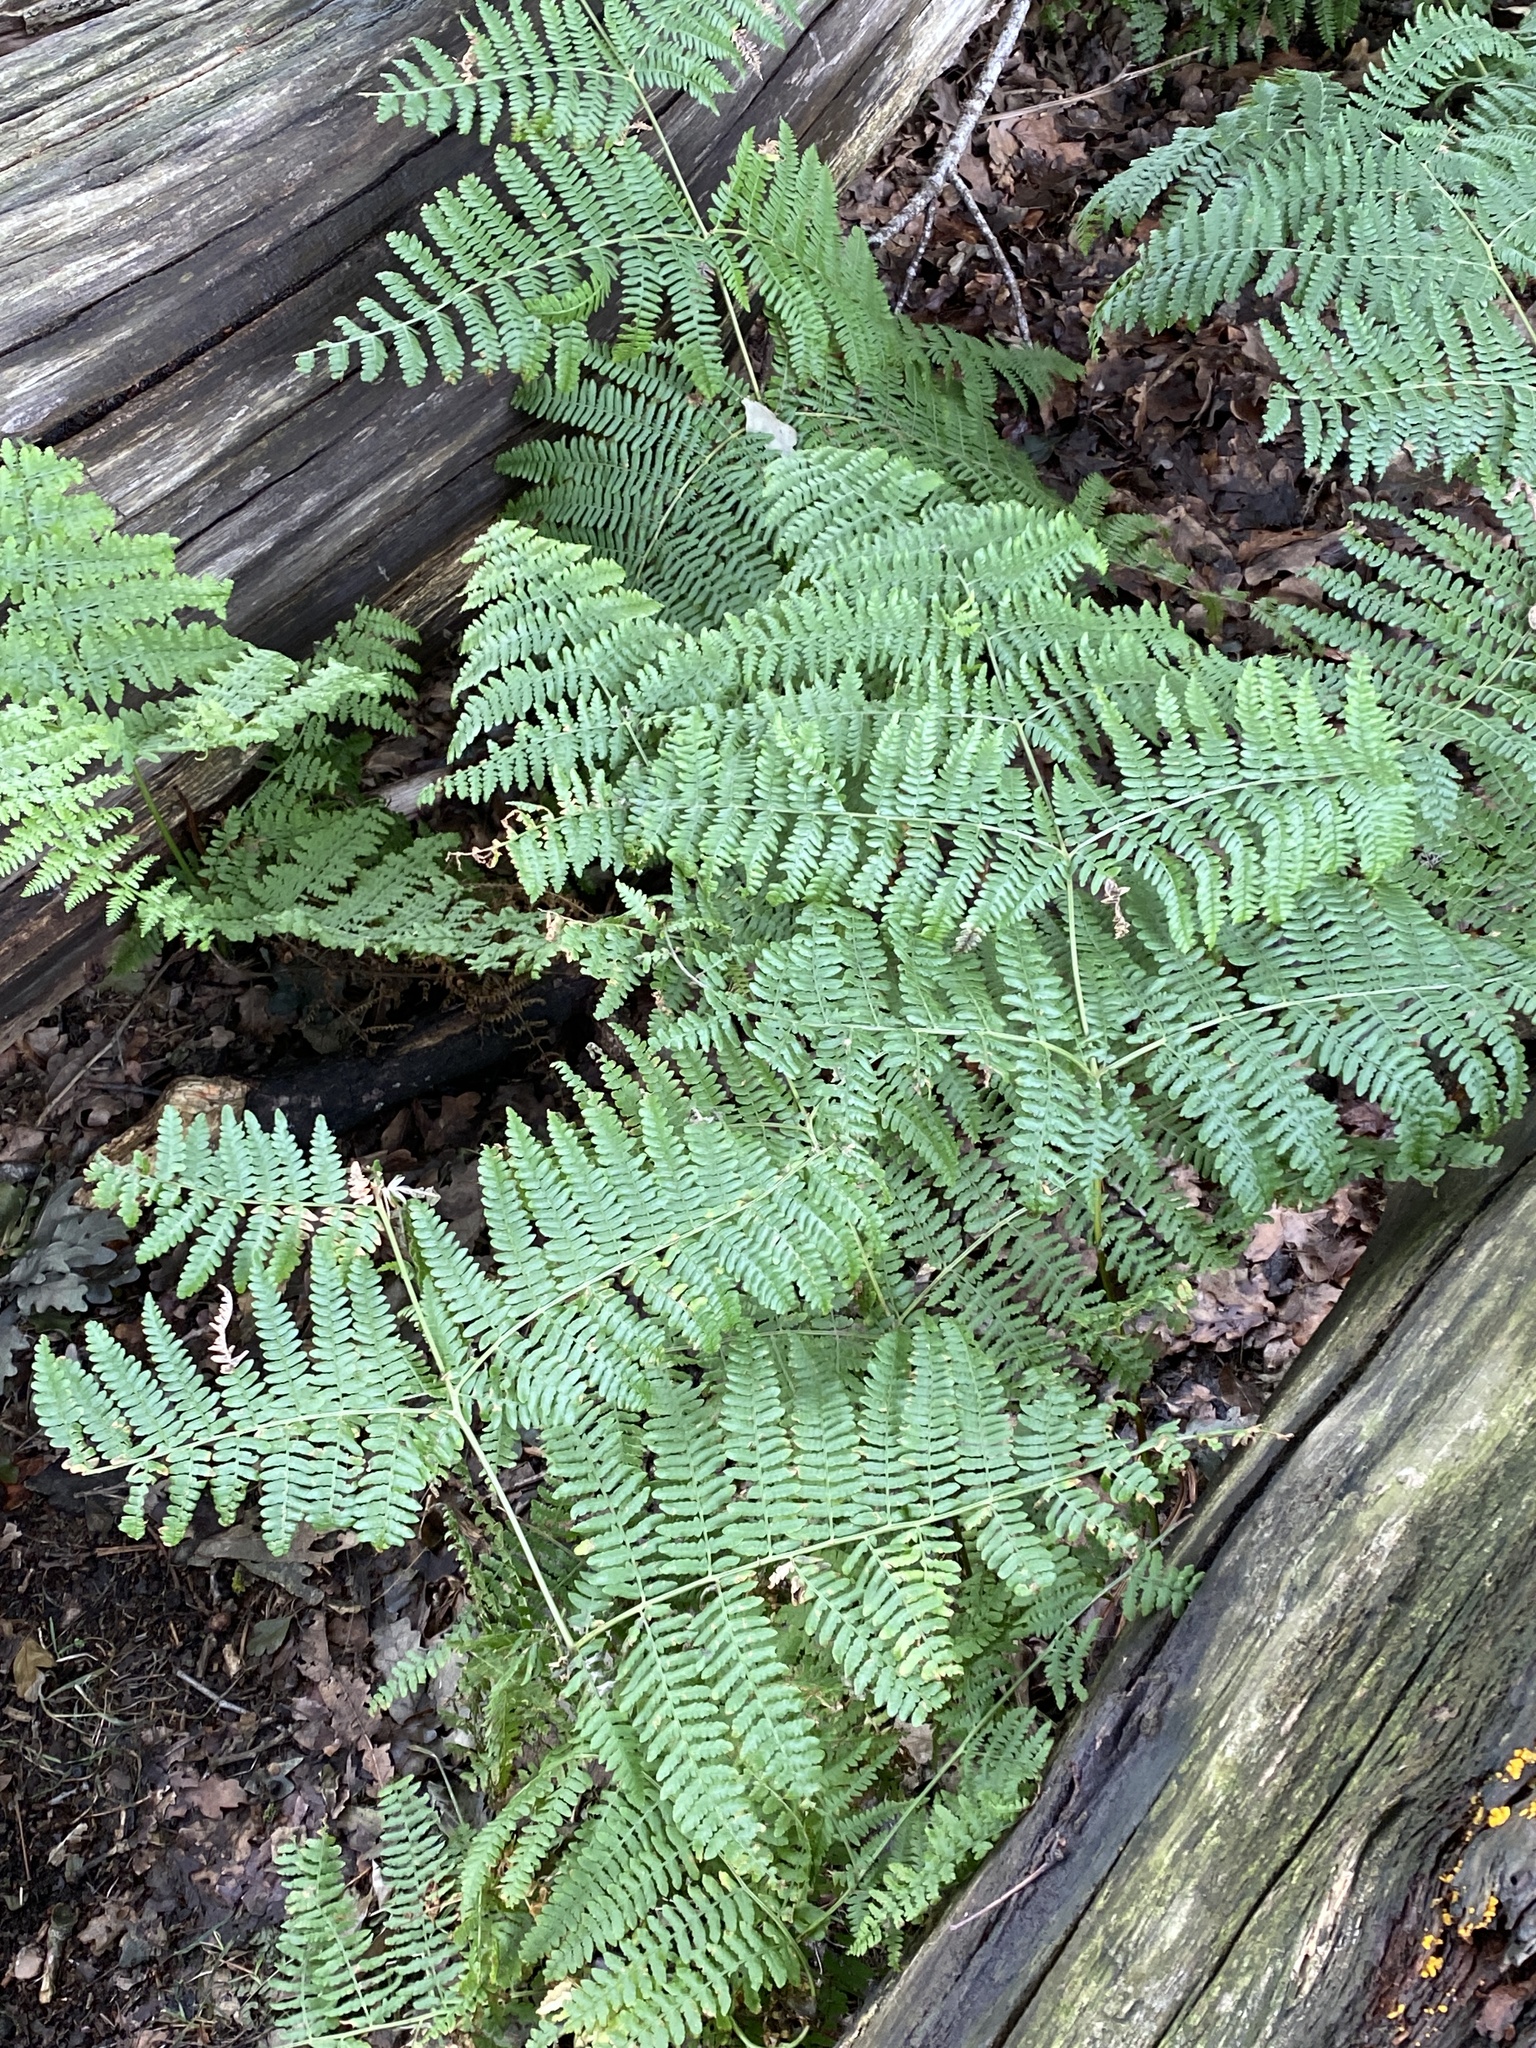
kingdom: Plantae
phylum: Tracheophyta
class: Polypodiopsida
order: Polypodiales
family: Dennstaedtiaceae
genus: Pteridium
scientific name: Pteridium aquilinum
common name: Bracken
